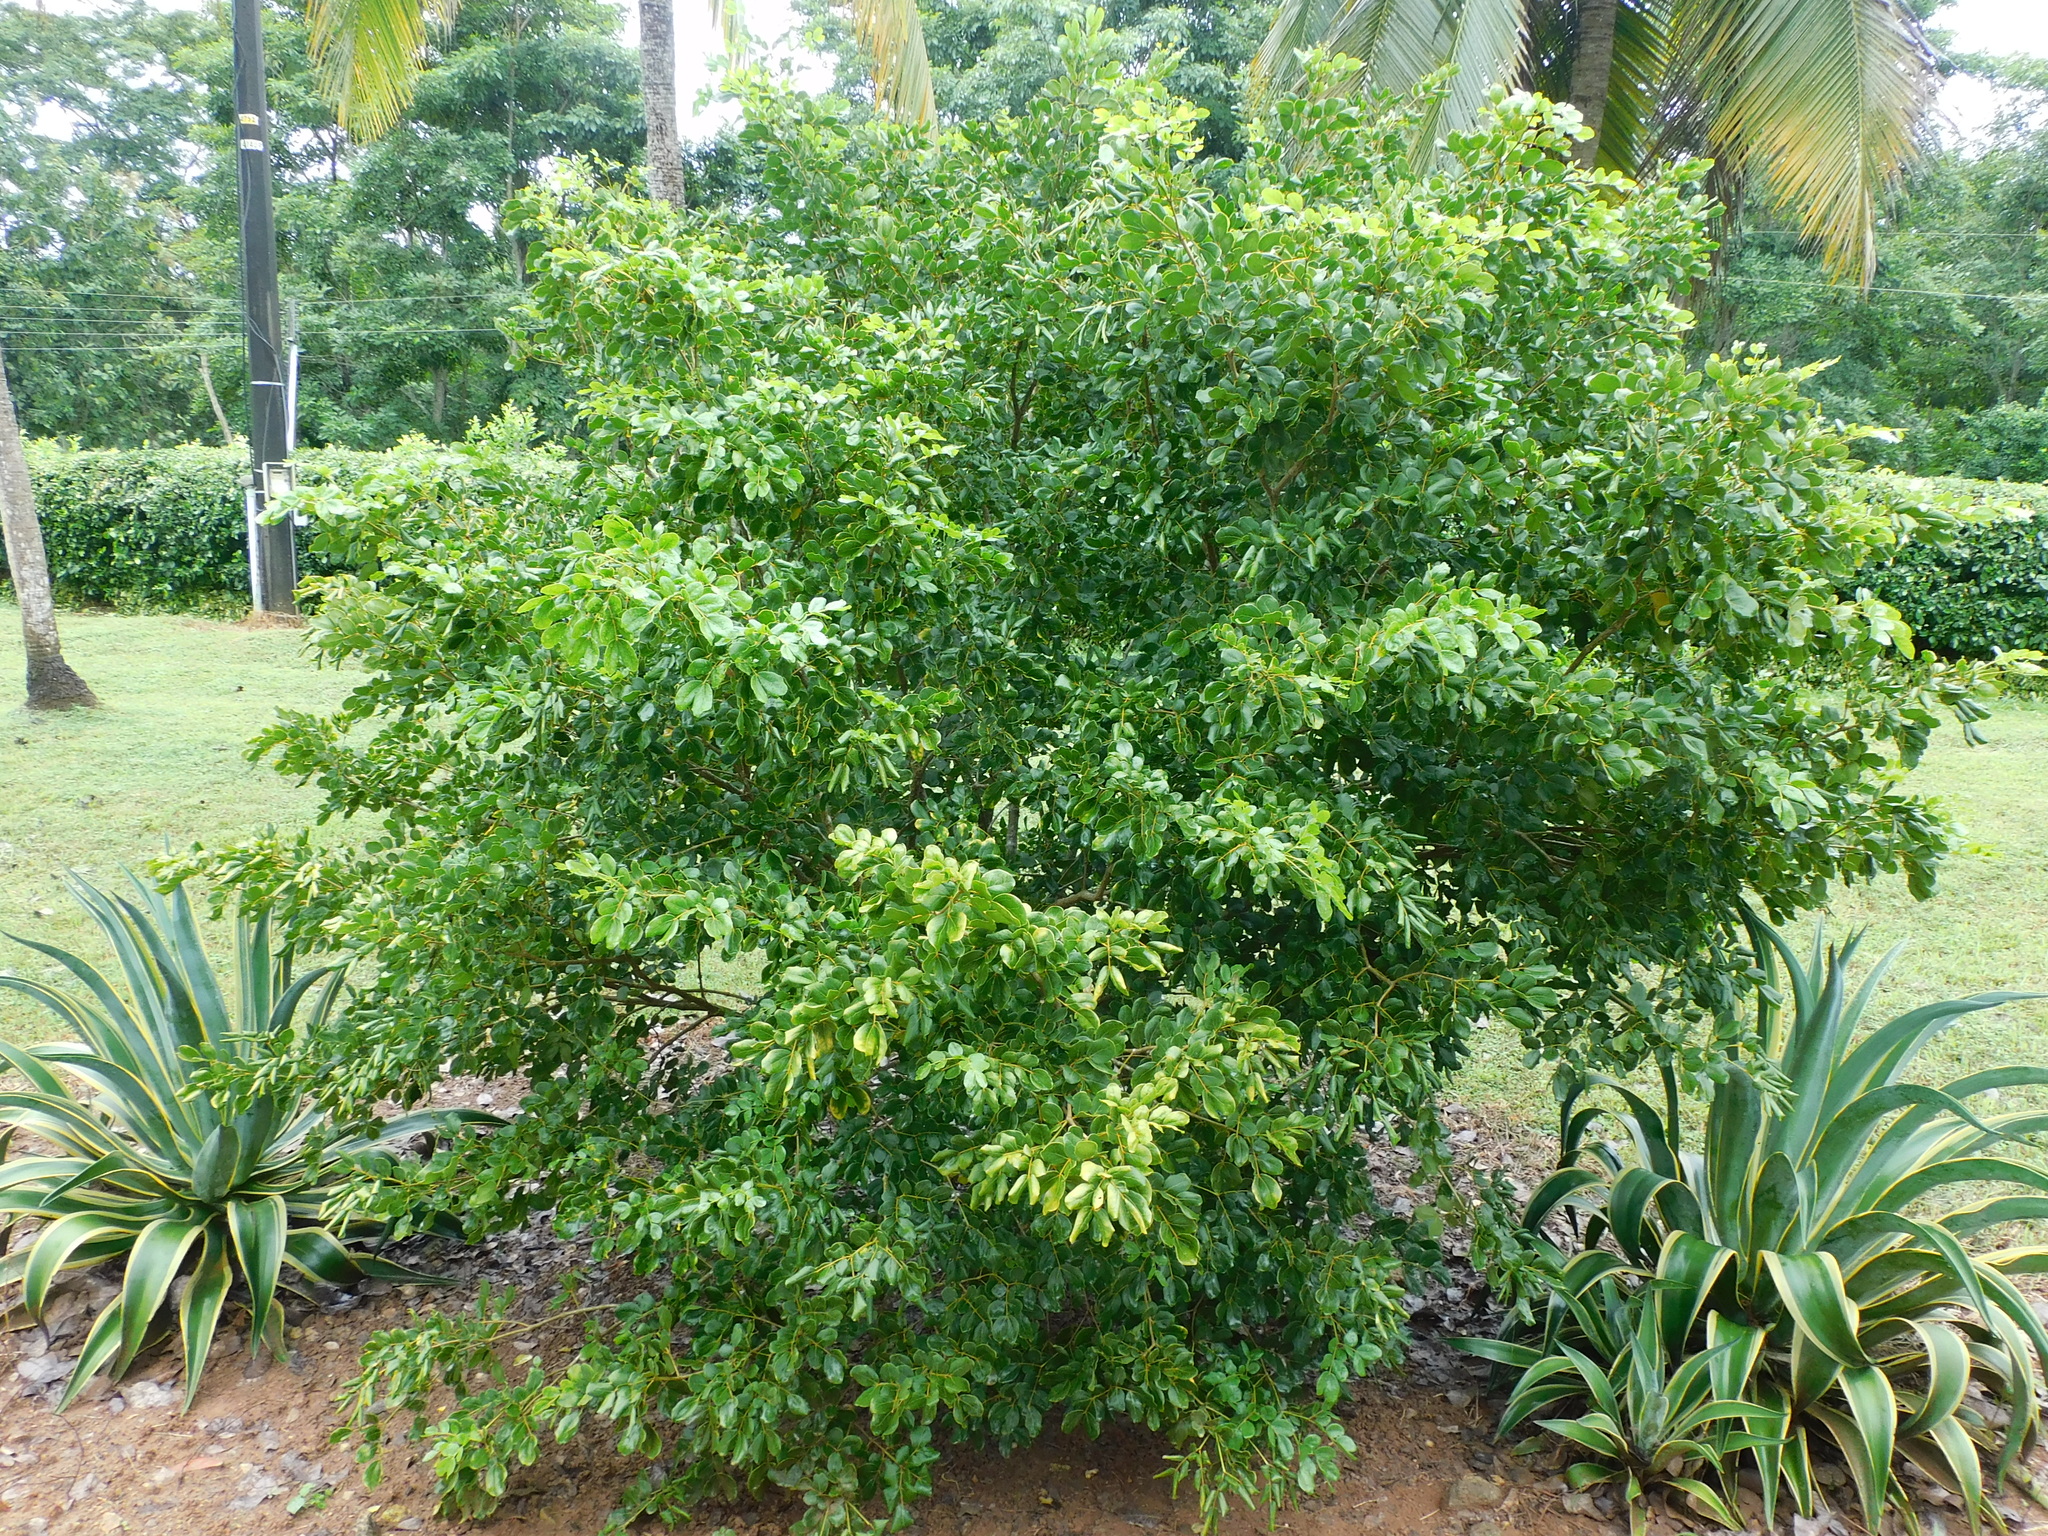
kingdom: Plantae
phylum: Tracheophyta
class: Magnoliopsida
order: Zygophyllales
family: Zygophyllaceae
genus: Guaiacum
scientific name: Guaiacum officinale
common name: Lignum vitae
